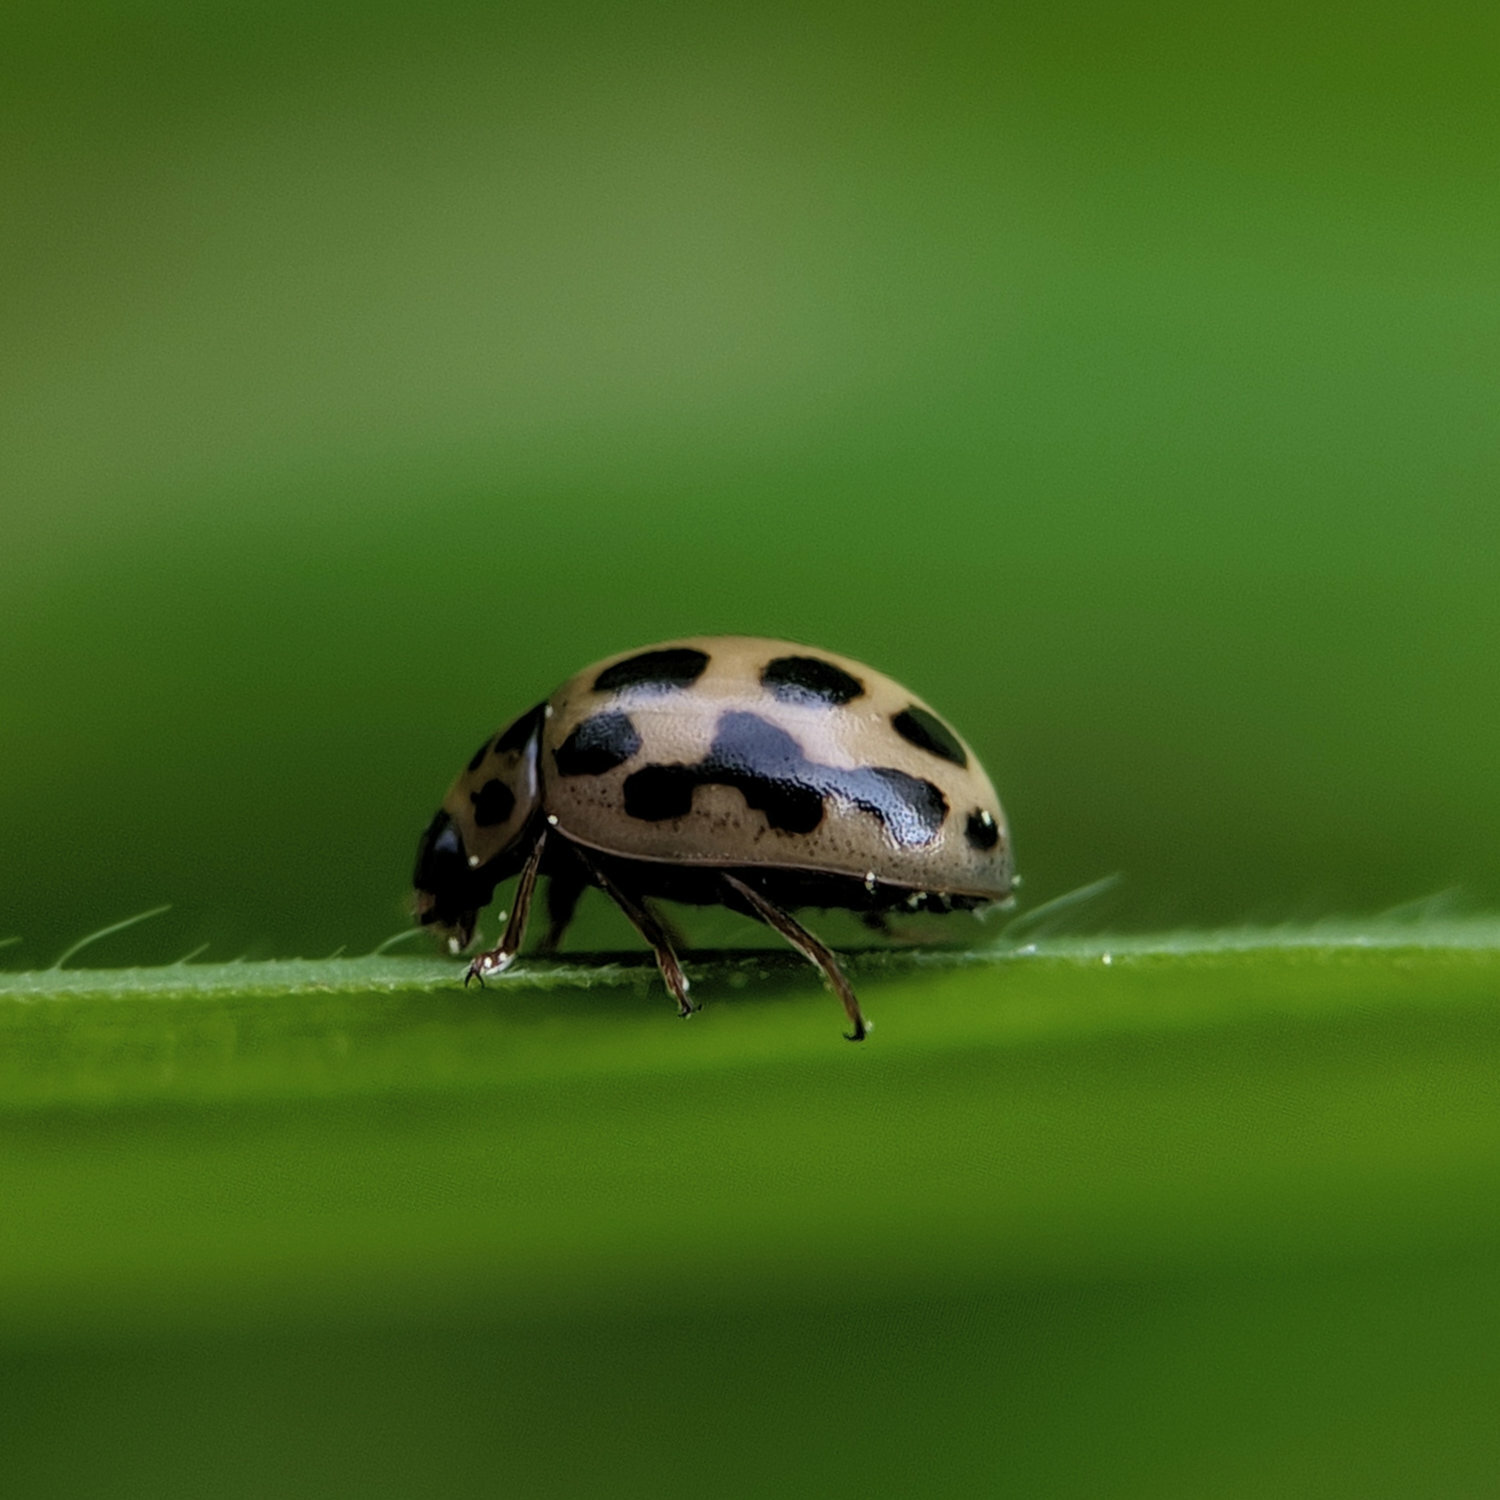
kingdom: Animalia
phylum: Arthropoda
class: Insecta
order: Coleoptera
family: Coccinellidae
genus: Tytthaspis
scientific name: Tytthaspis sedecimpunctata
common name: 16-spot ladybird
